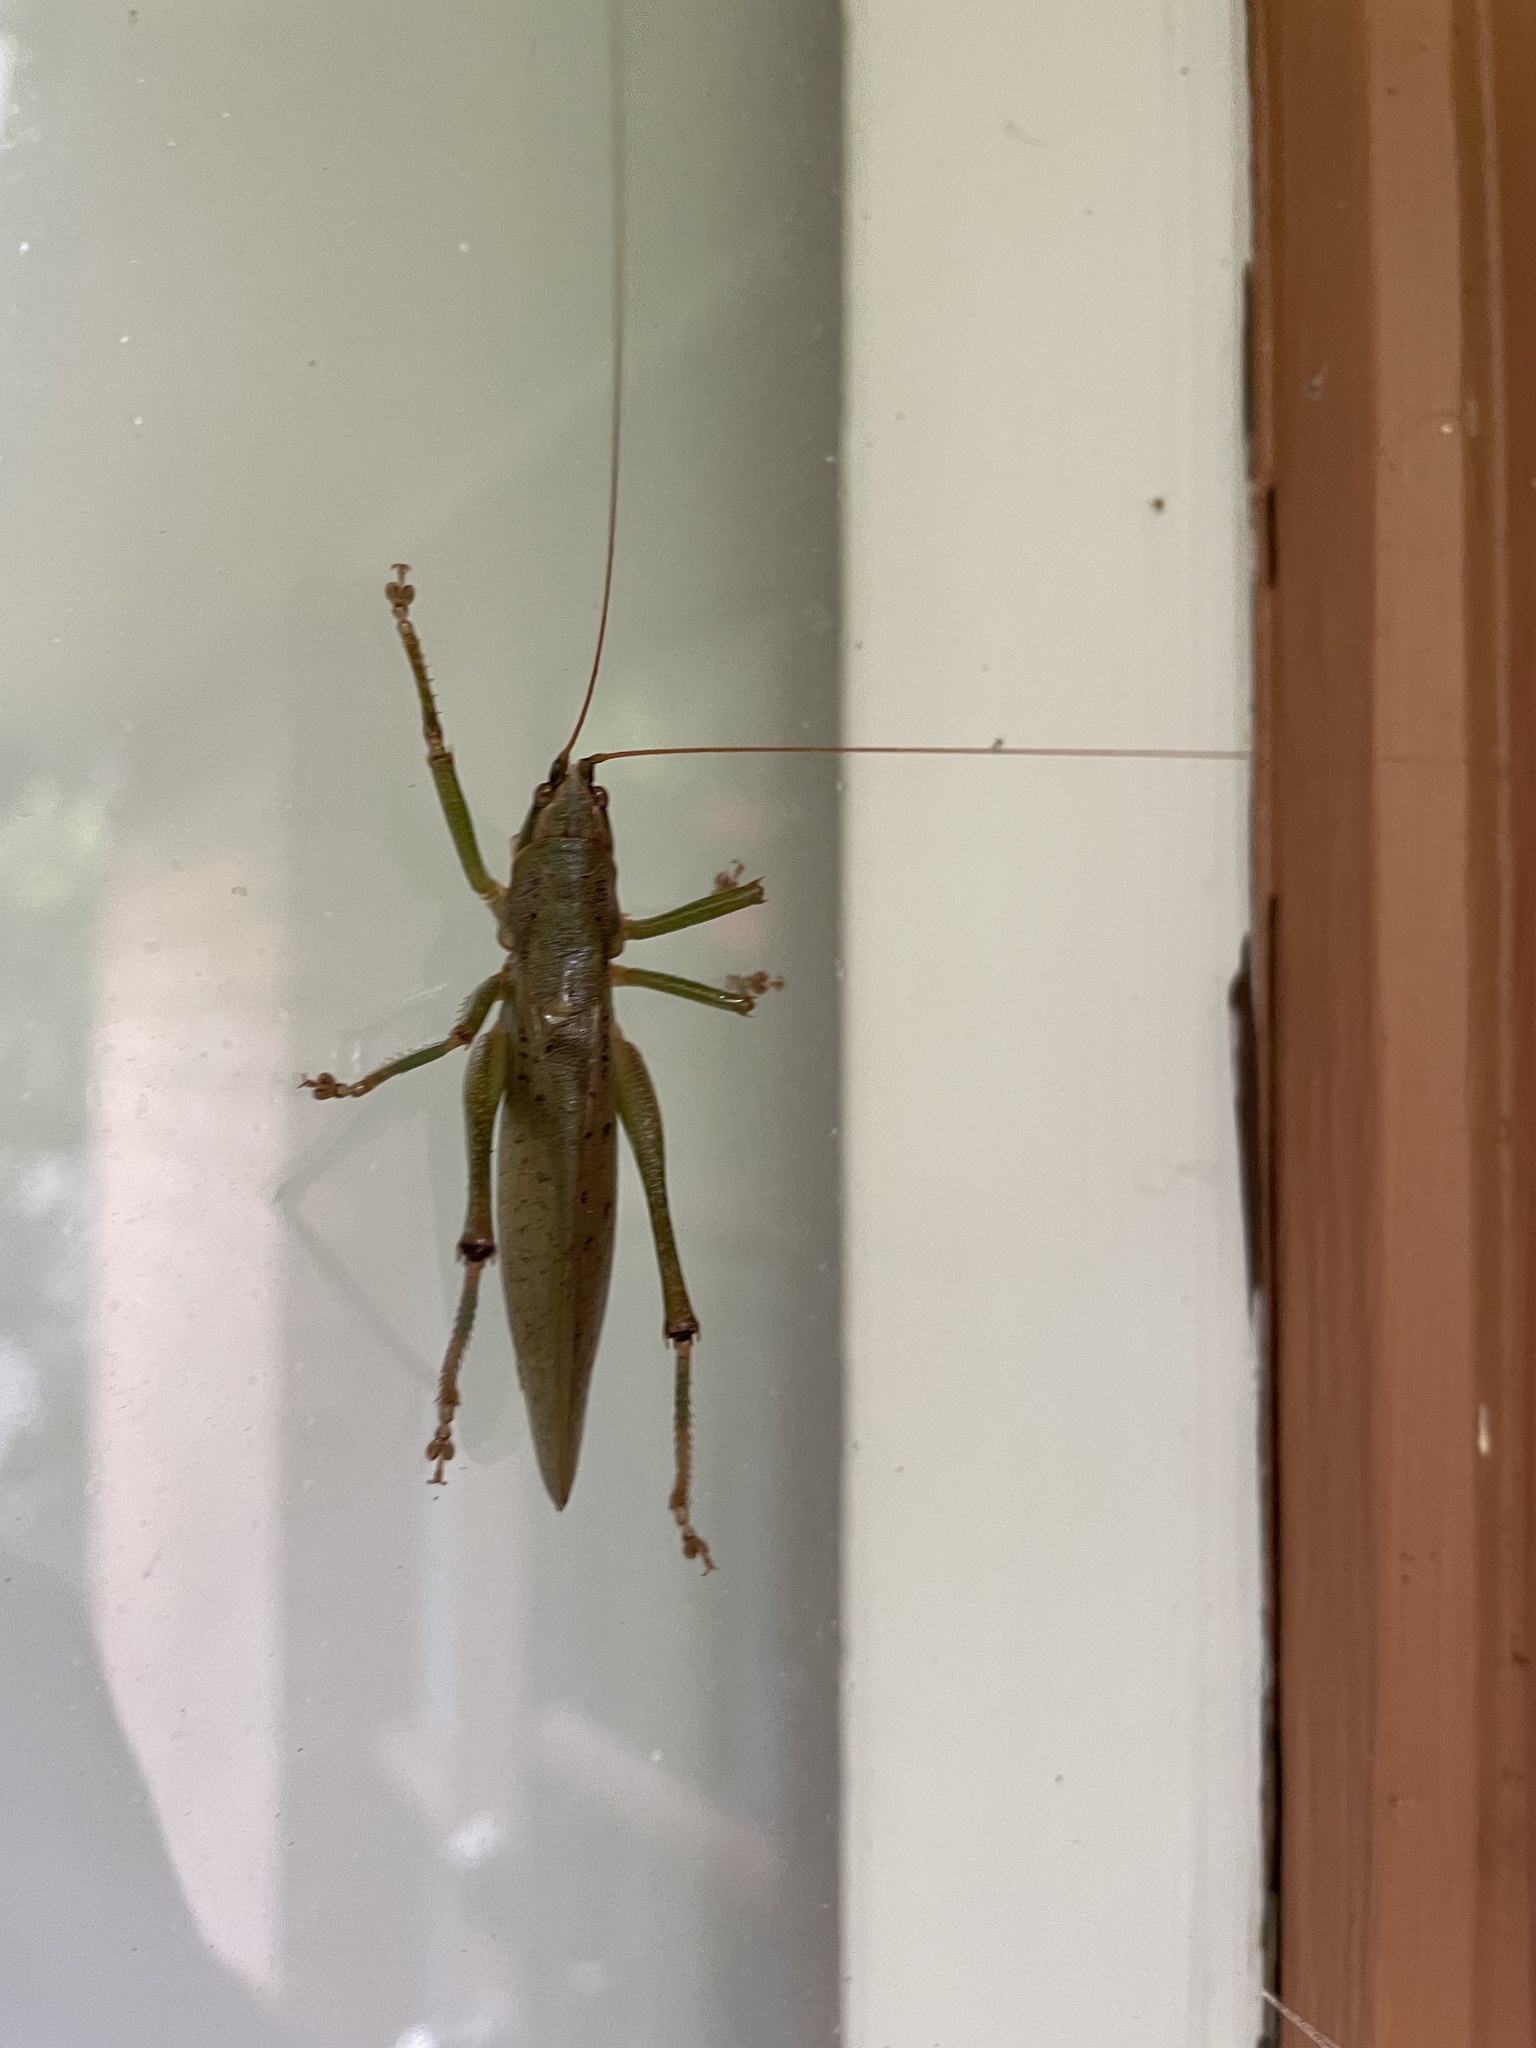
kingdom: Animalia
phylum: Arthropoda
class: Insecta
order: Orthoptera
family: Tettigoniidae
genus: Austrosalomona
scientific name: Austrosalomona falcata
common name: Olive-green coastal katydid
